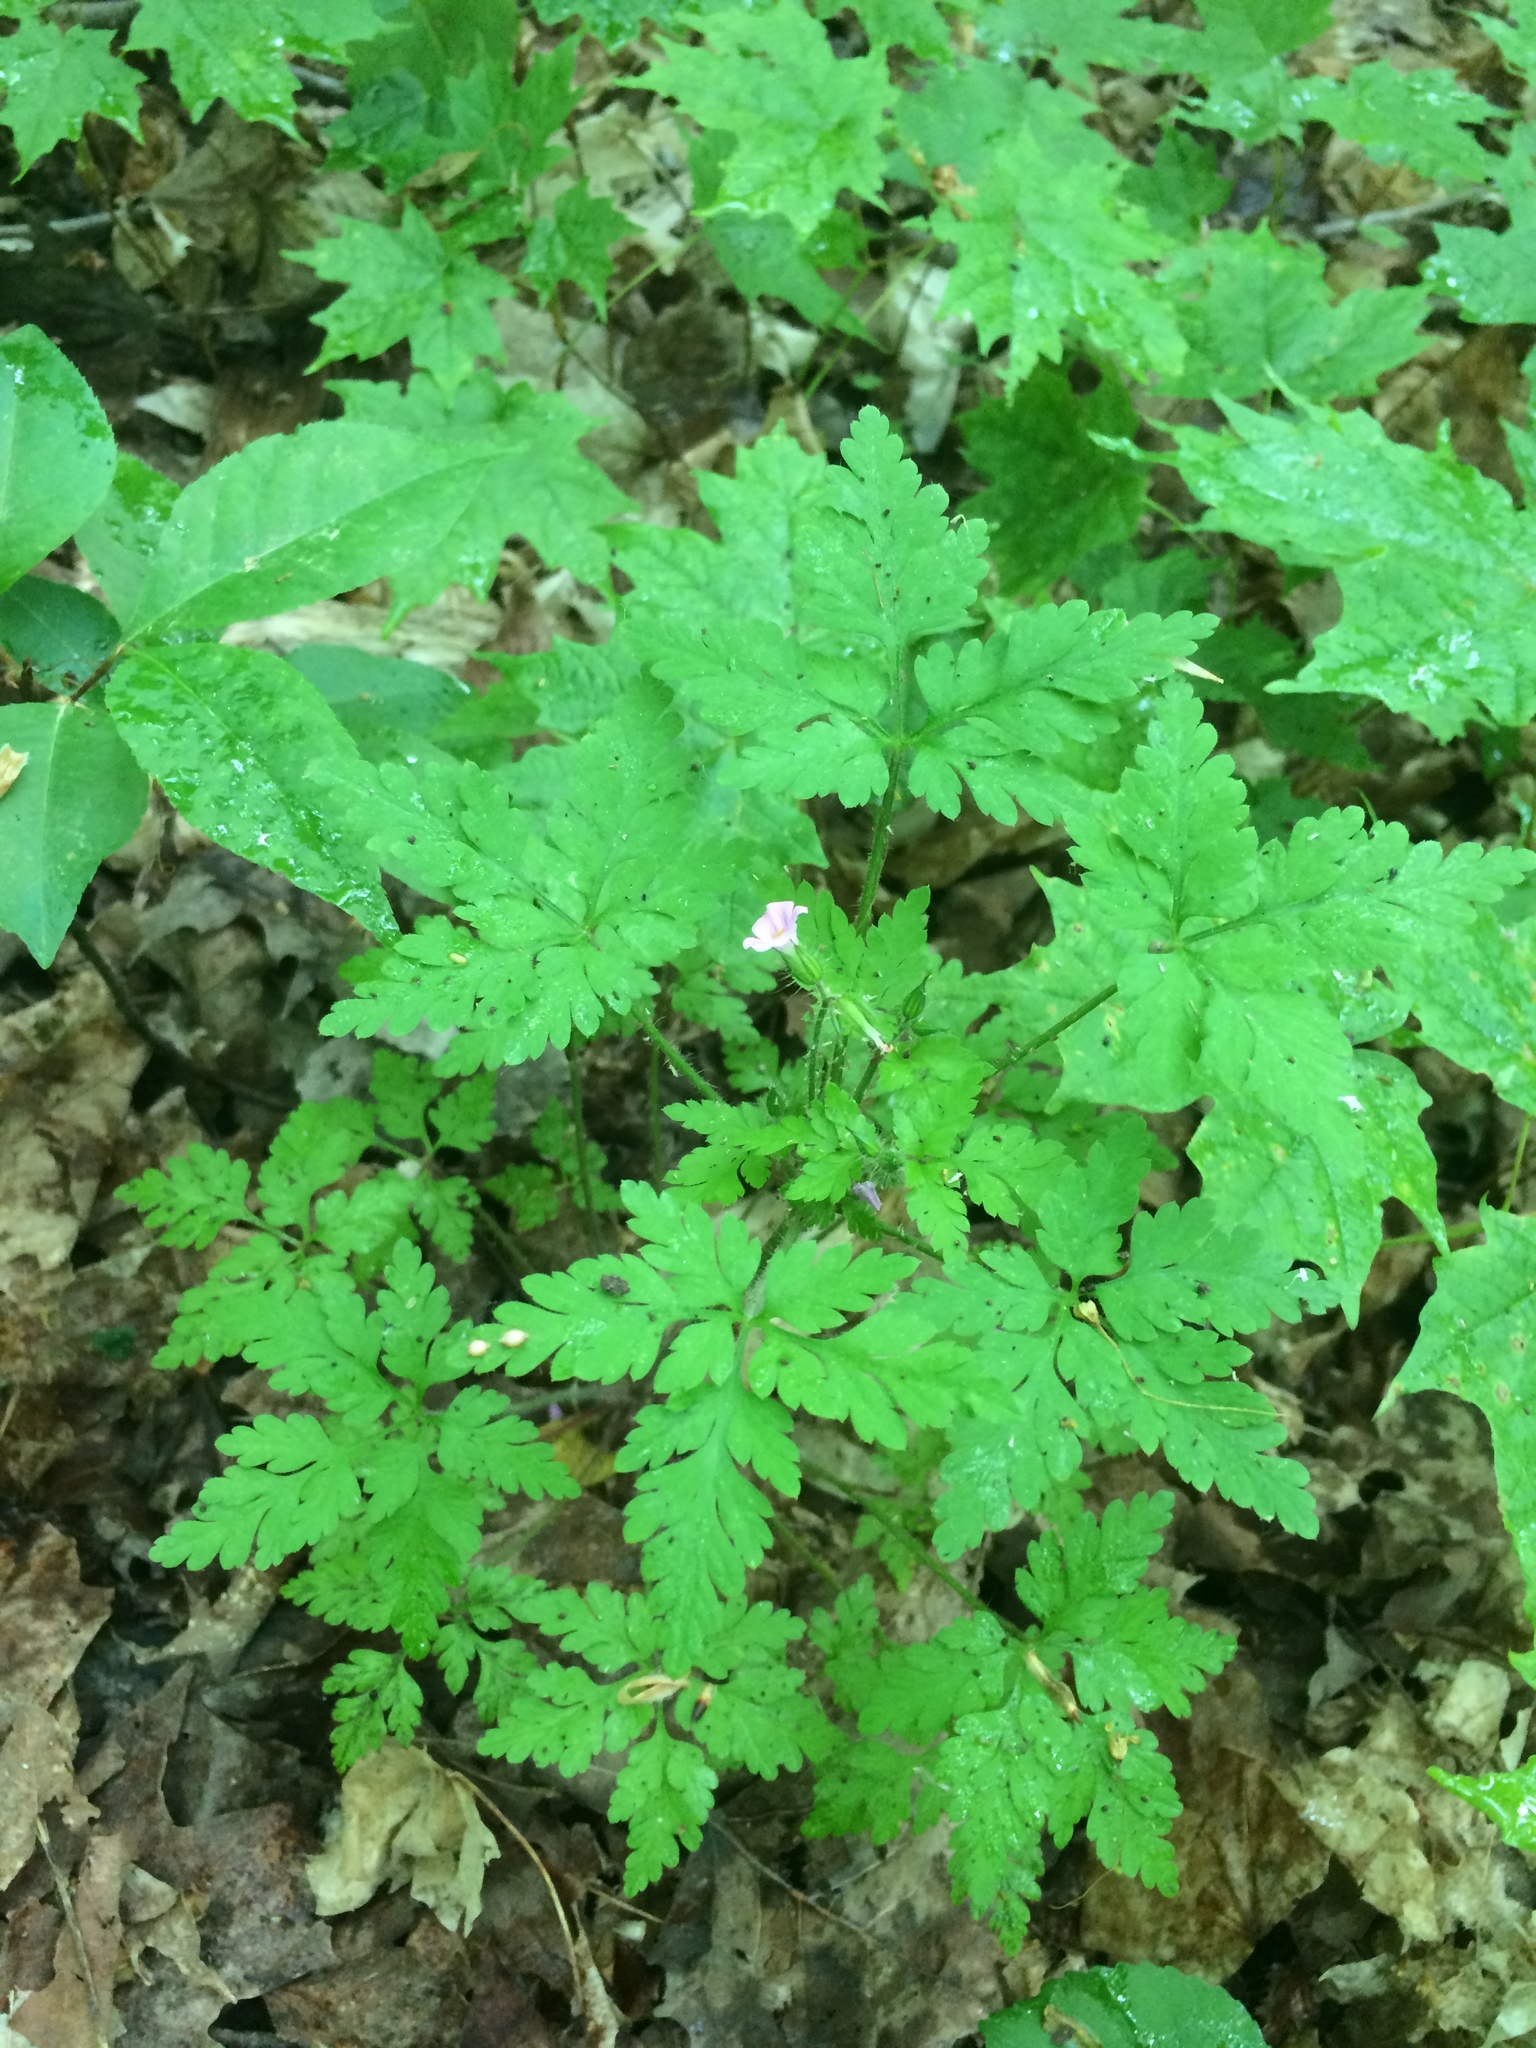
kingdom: Plantae
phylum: Tracheophyta
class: Magnoliopsida
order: Geraniales
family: Geraniaceae
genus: Geranium
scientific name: Geranium robertianum
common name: Herb-robert
